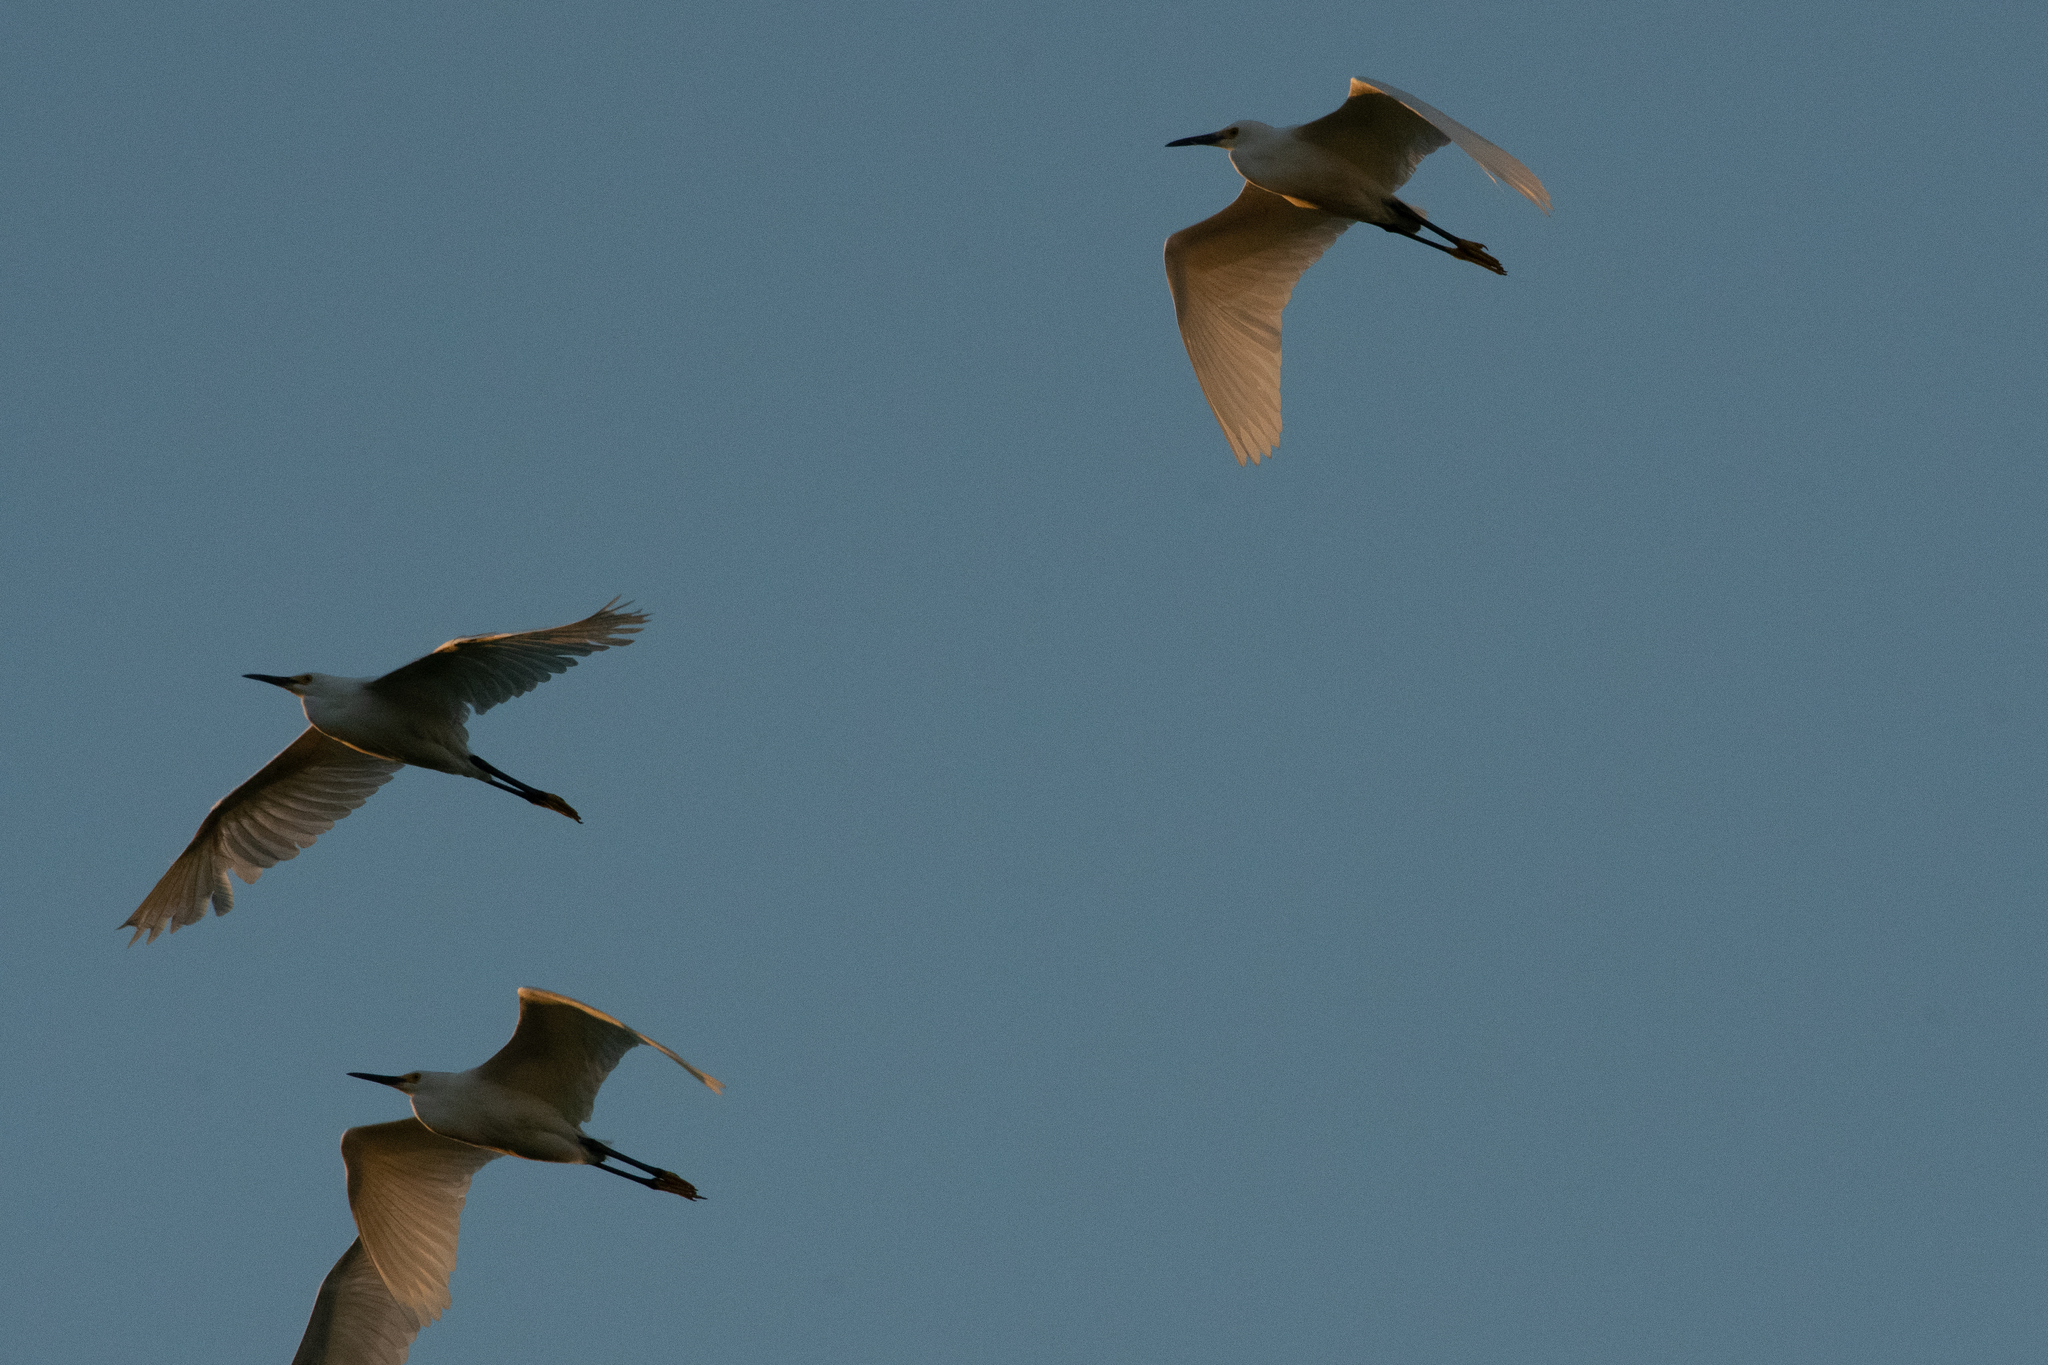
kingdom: Animalia
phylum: Chordata
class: Aves
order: Pelecaniformes
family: Ardeidae
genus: Egretta
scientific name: Egretta thula
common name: Snowy egret
